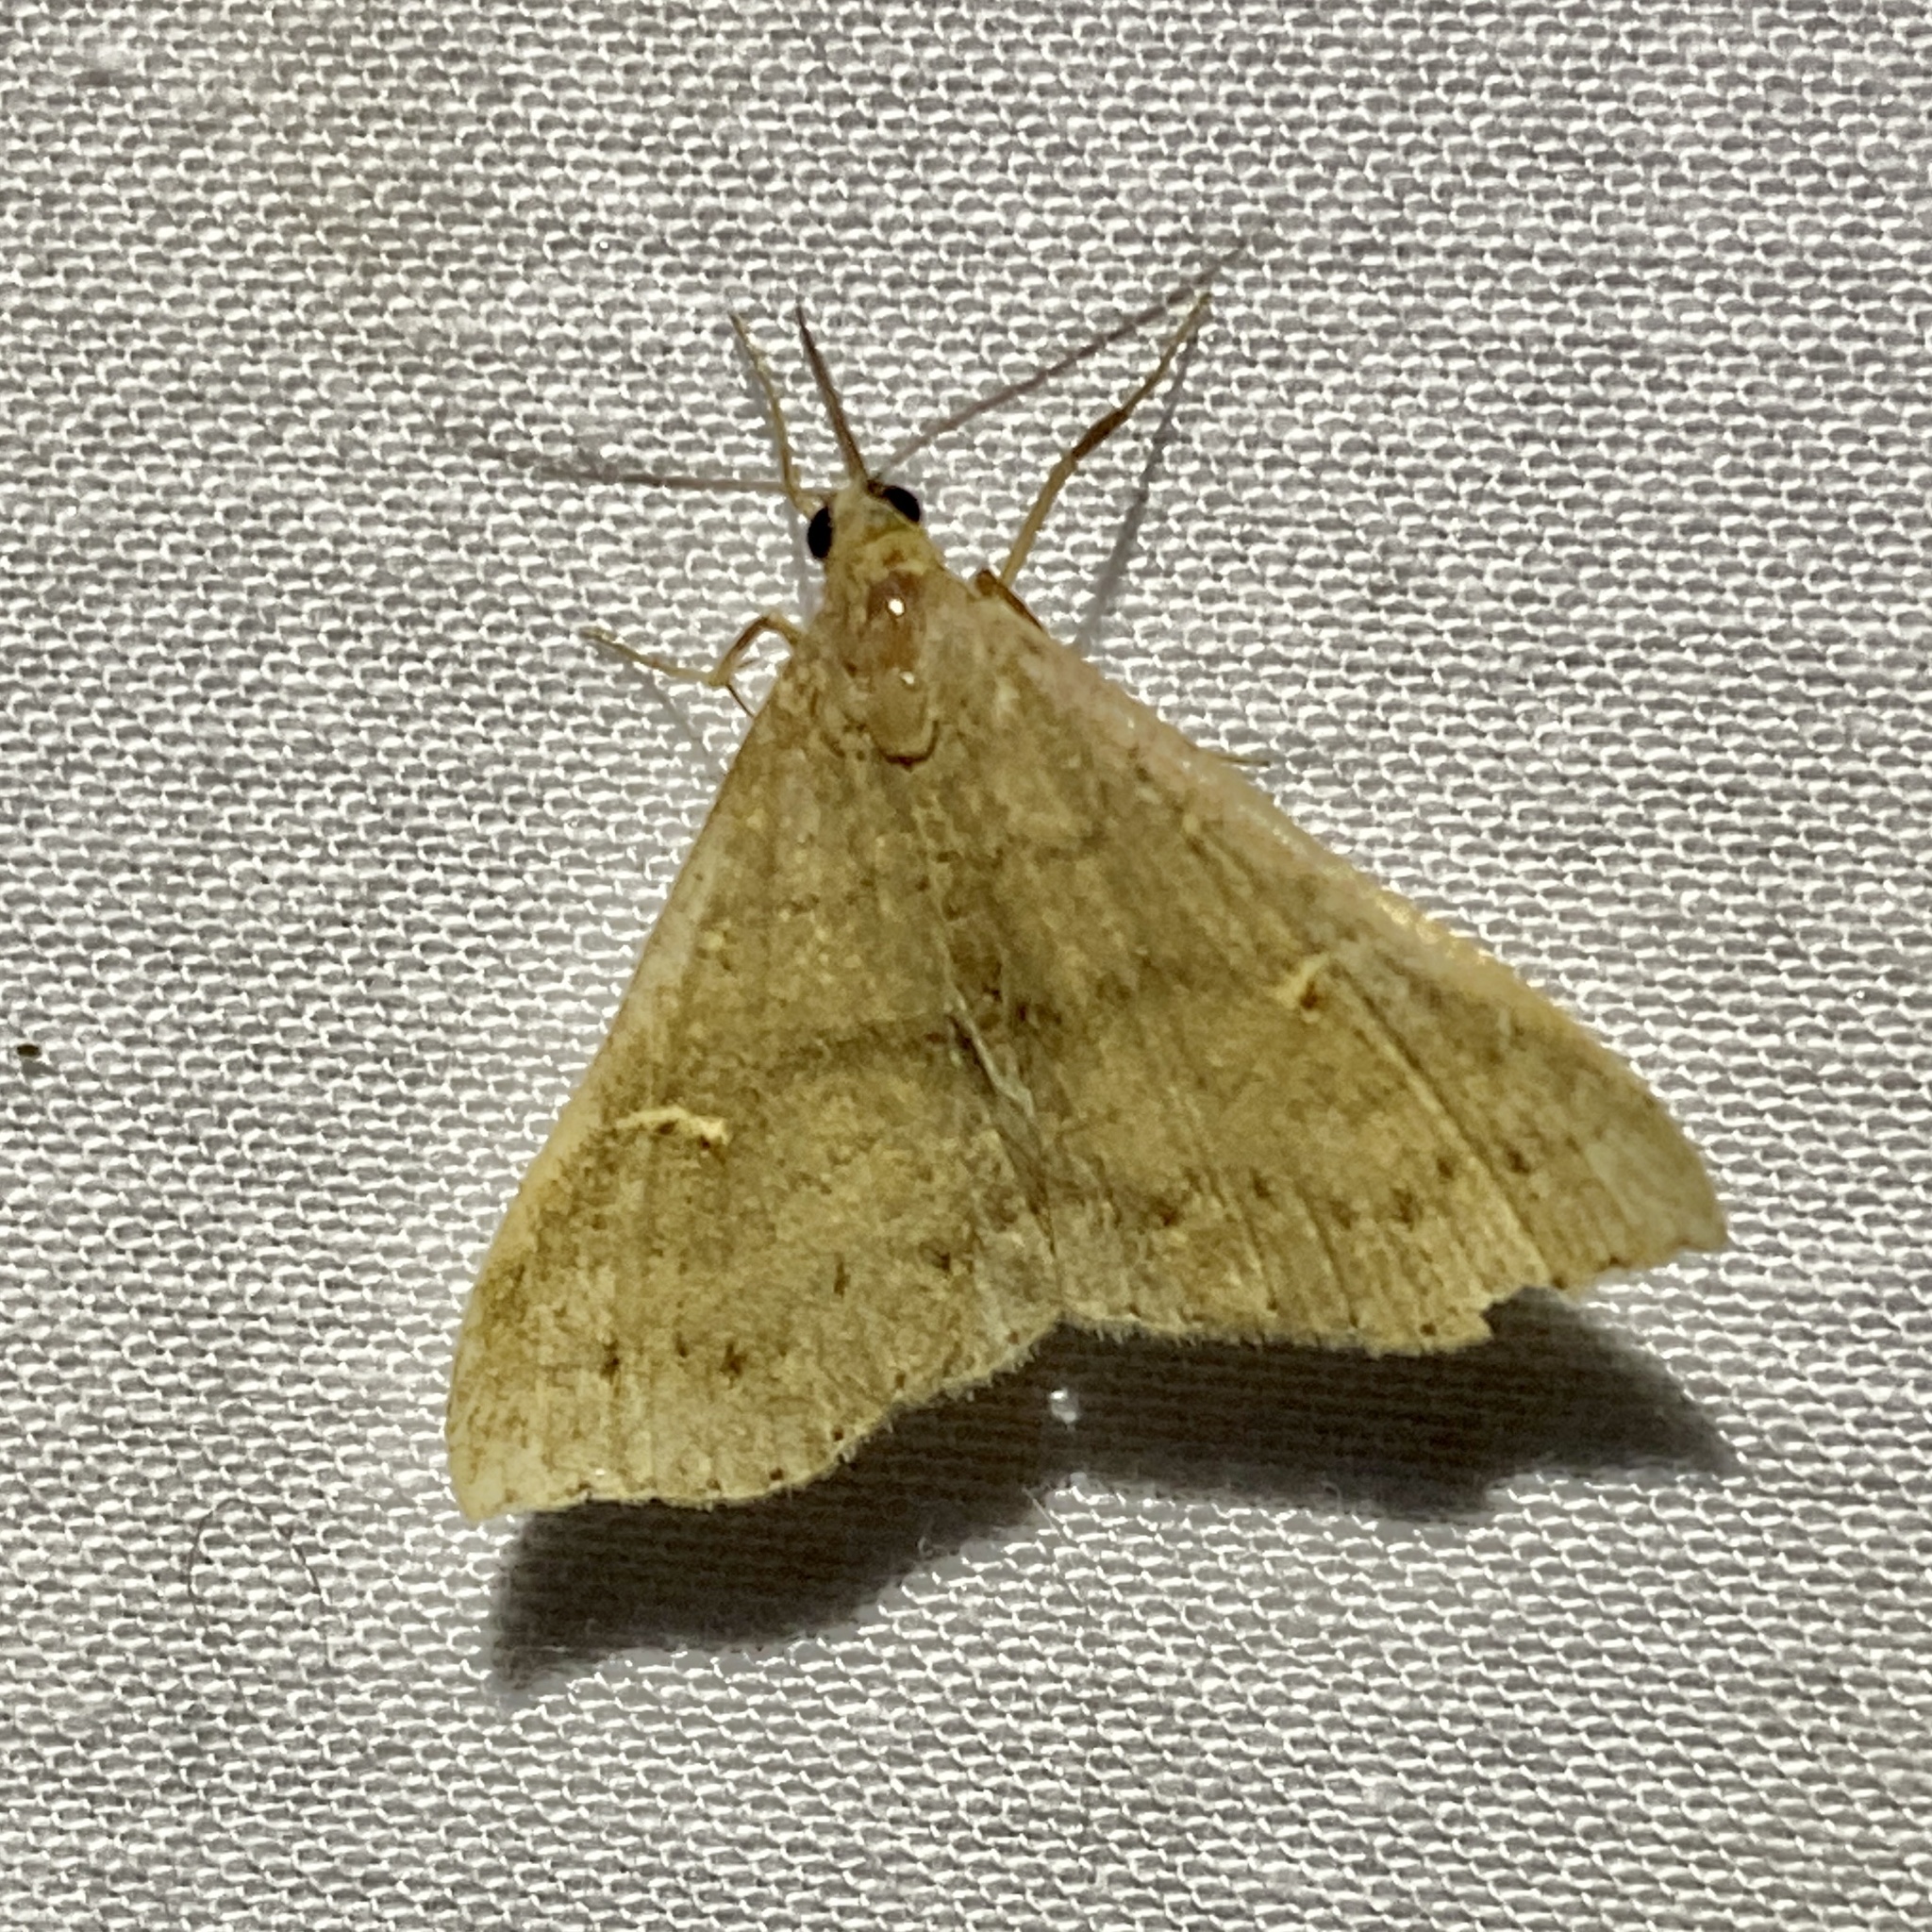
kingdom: Animalia
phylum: Arthropoda
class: Insecta
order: Lepidoptera
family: Erebidae
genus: Renia
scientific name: Renia adspergillus
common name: Speckled renia moth
